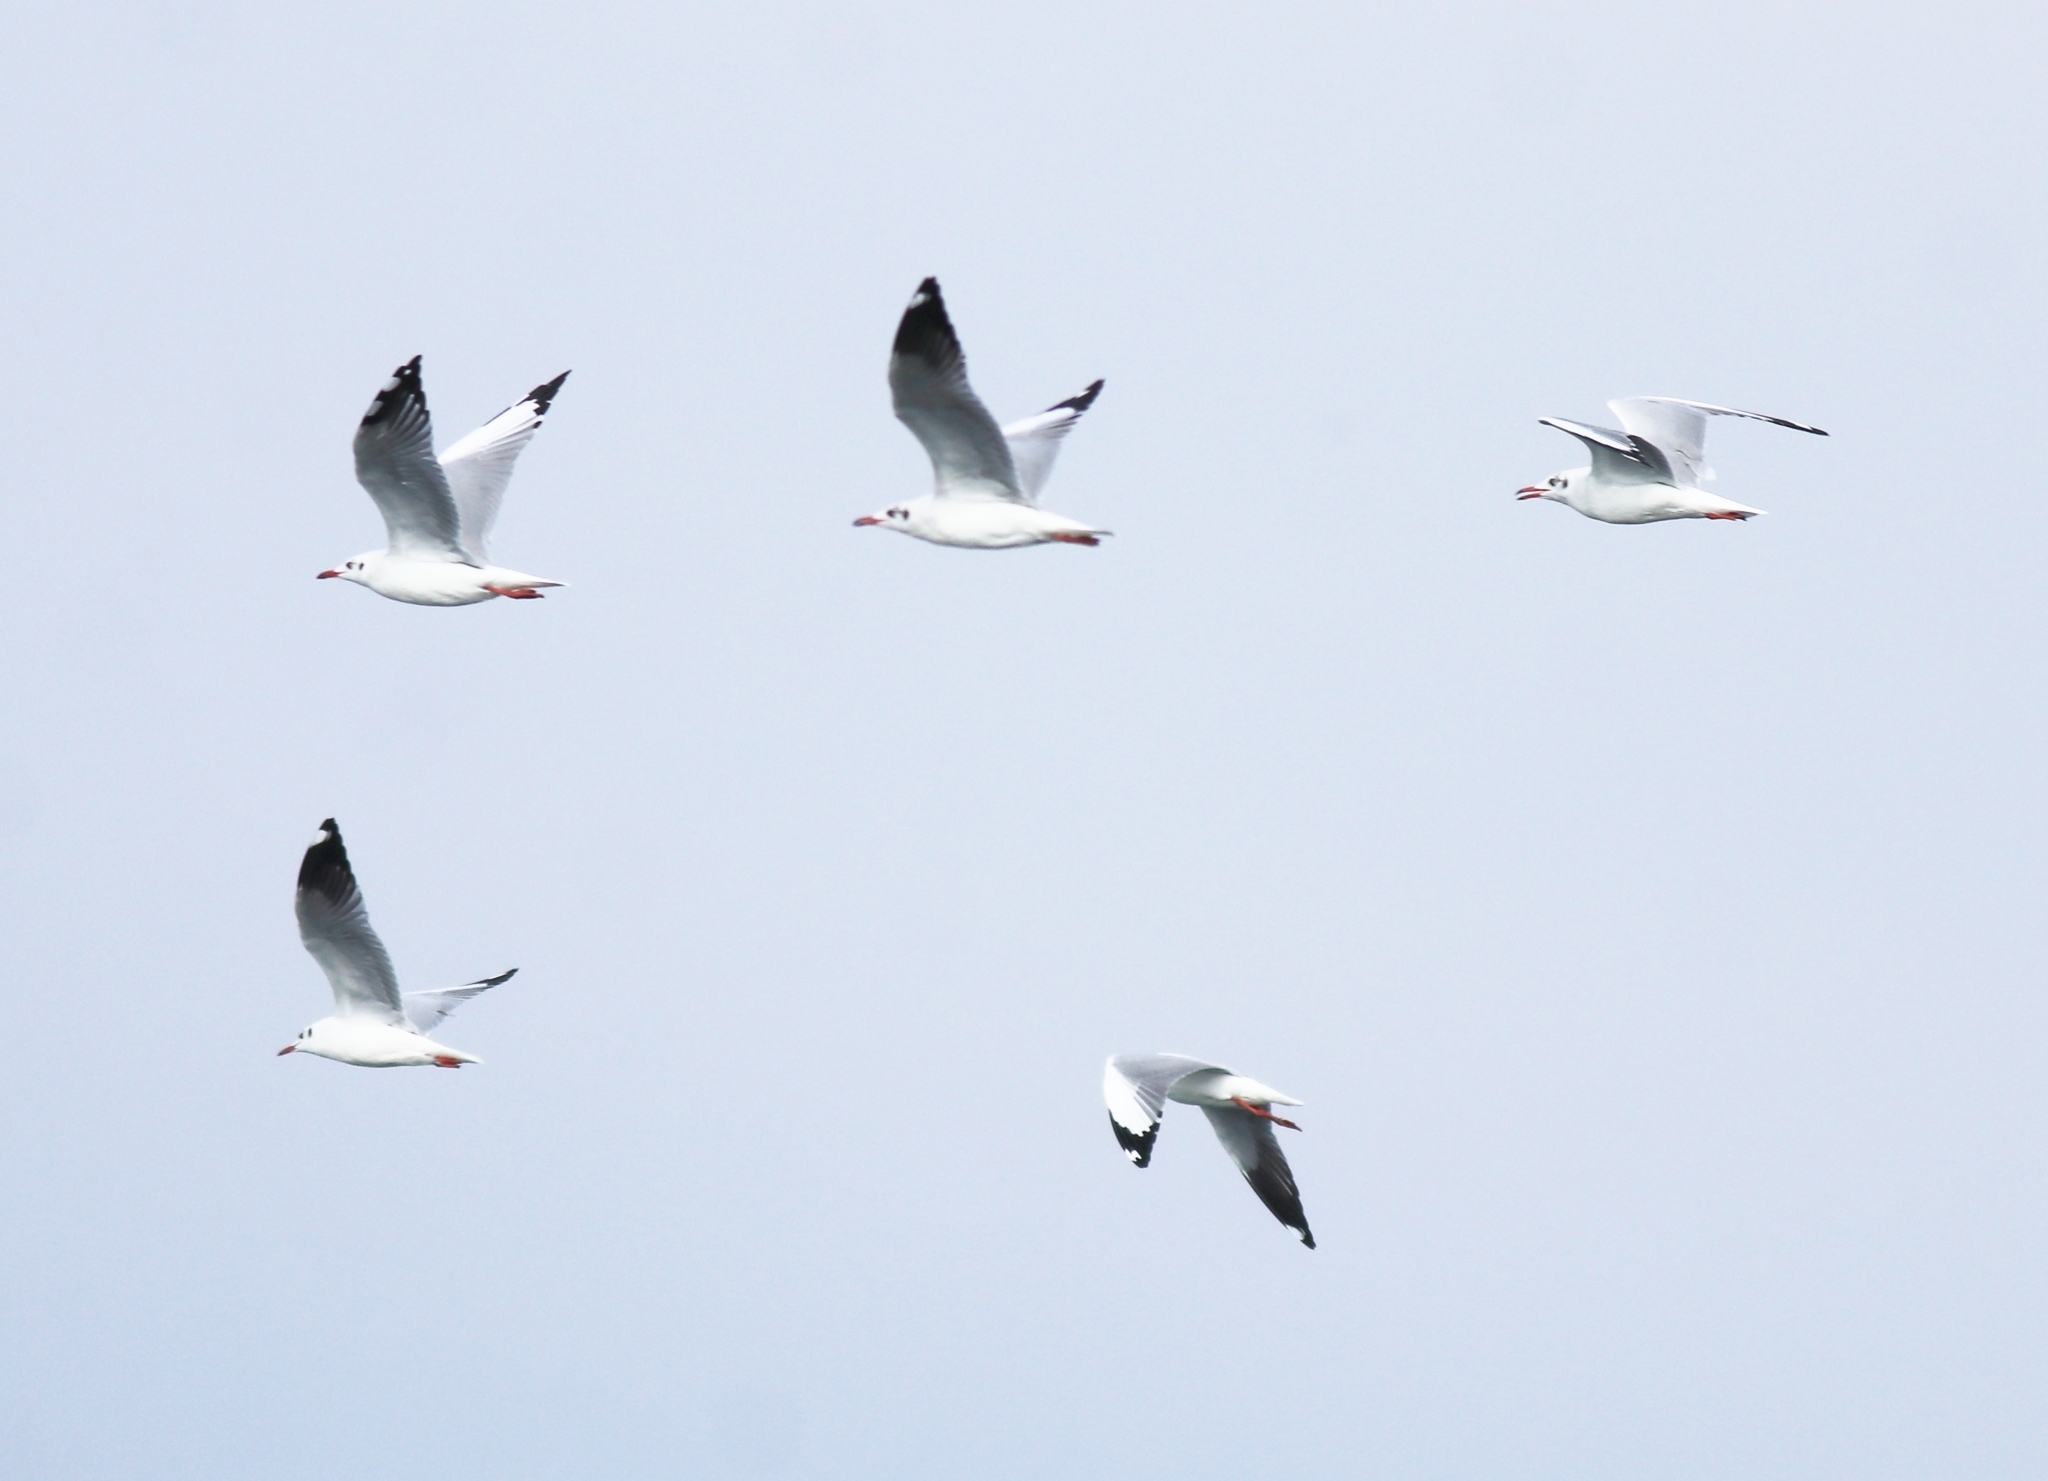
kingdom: Animalia
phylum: Chordata
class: Aves
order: Charadriiformes
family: Laridae
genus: Chroicocephalus
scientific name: Chroicocephalus brunnicephalus
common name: Brown-headed gull
